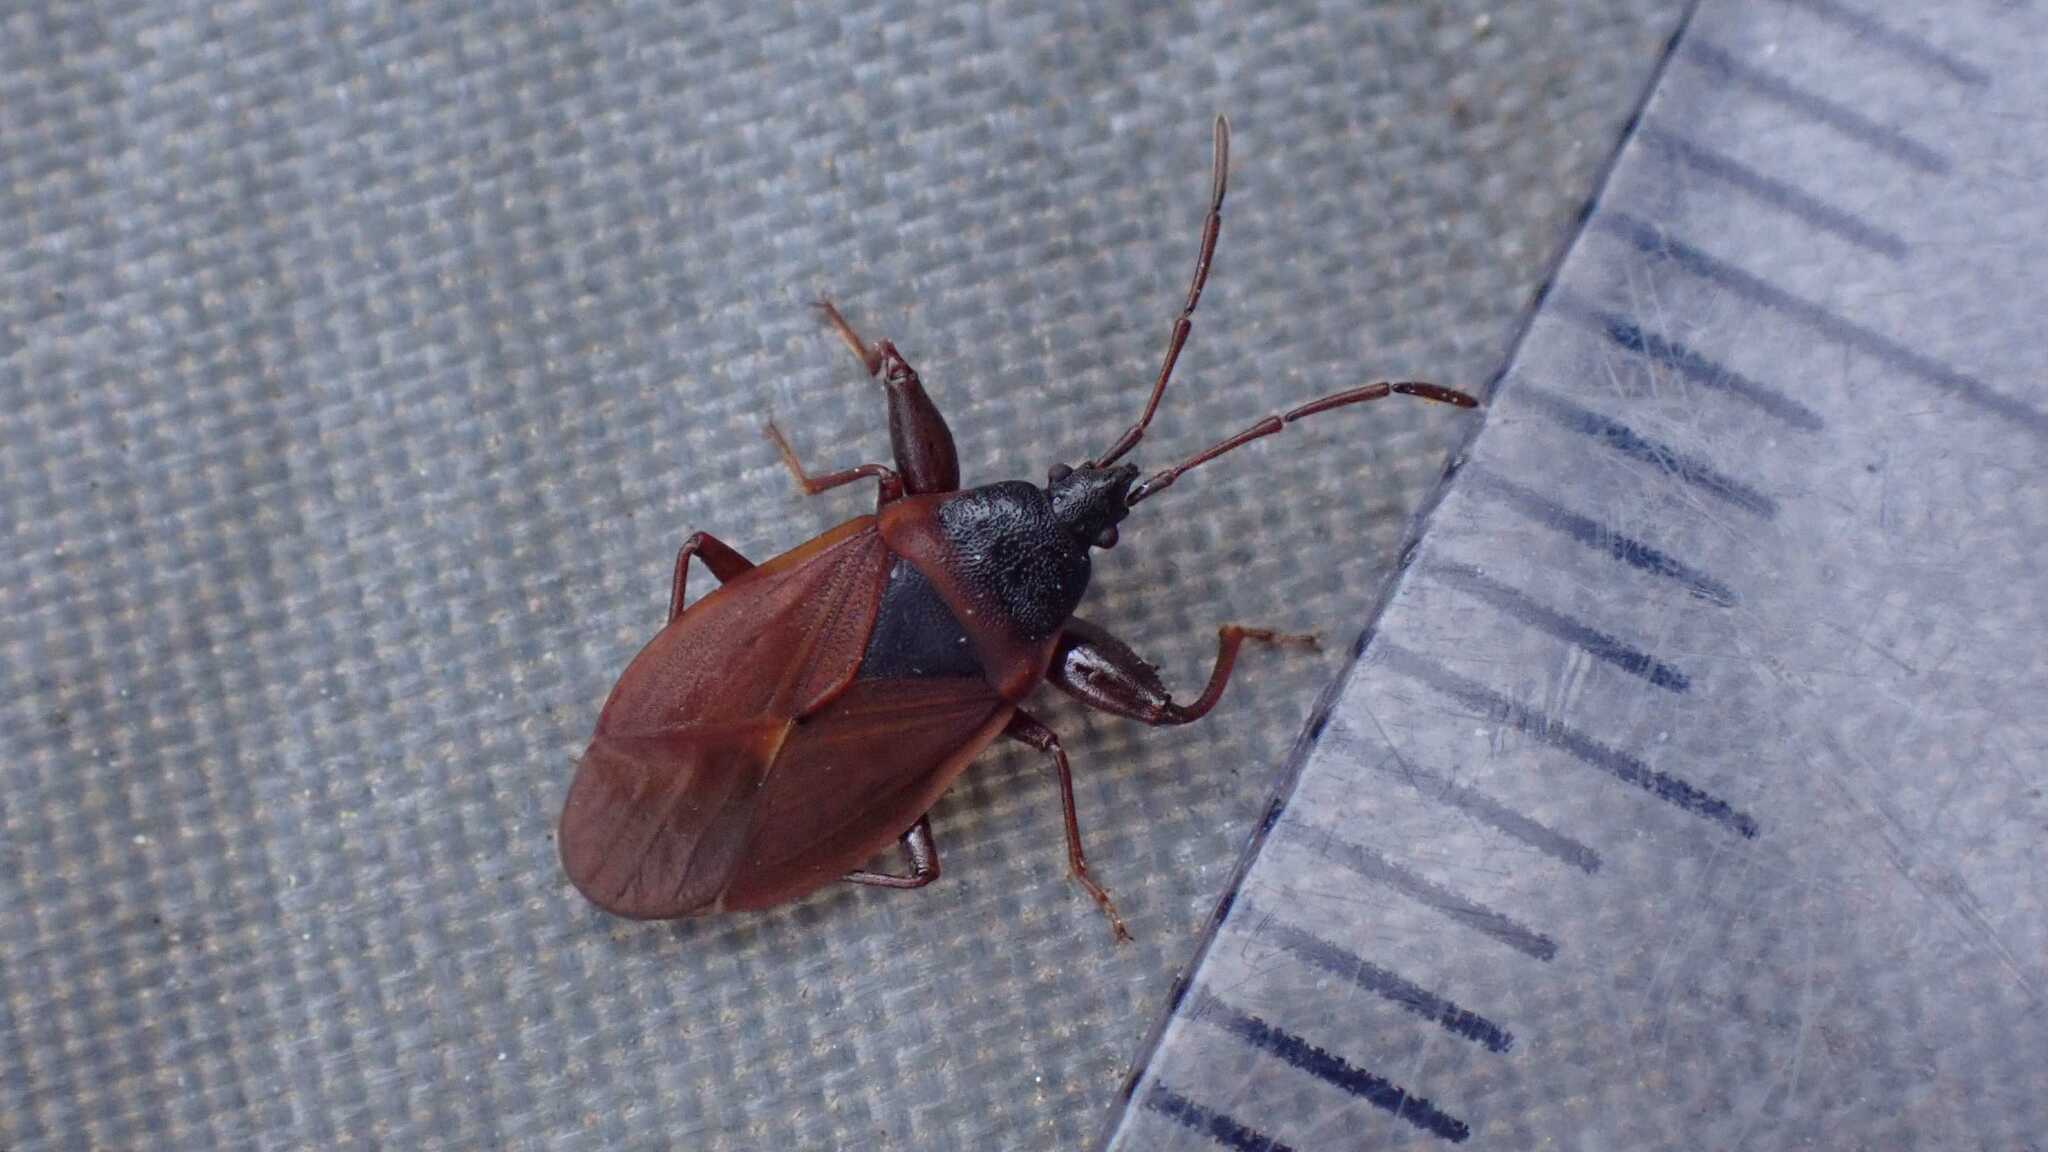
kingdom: Animalia
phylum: Arthropoda
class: Insecta
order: Hemiptera
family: Rhyparochromidae
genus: Gastrodes
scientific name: Gastrodes grossipes
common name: Pine cone bug
